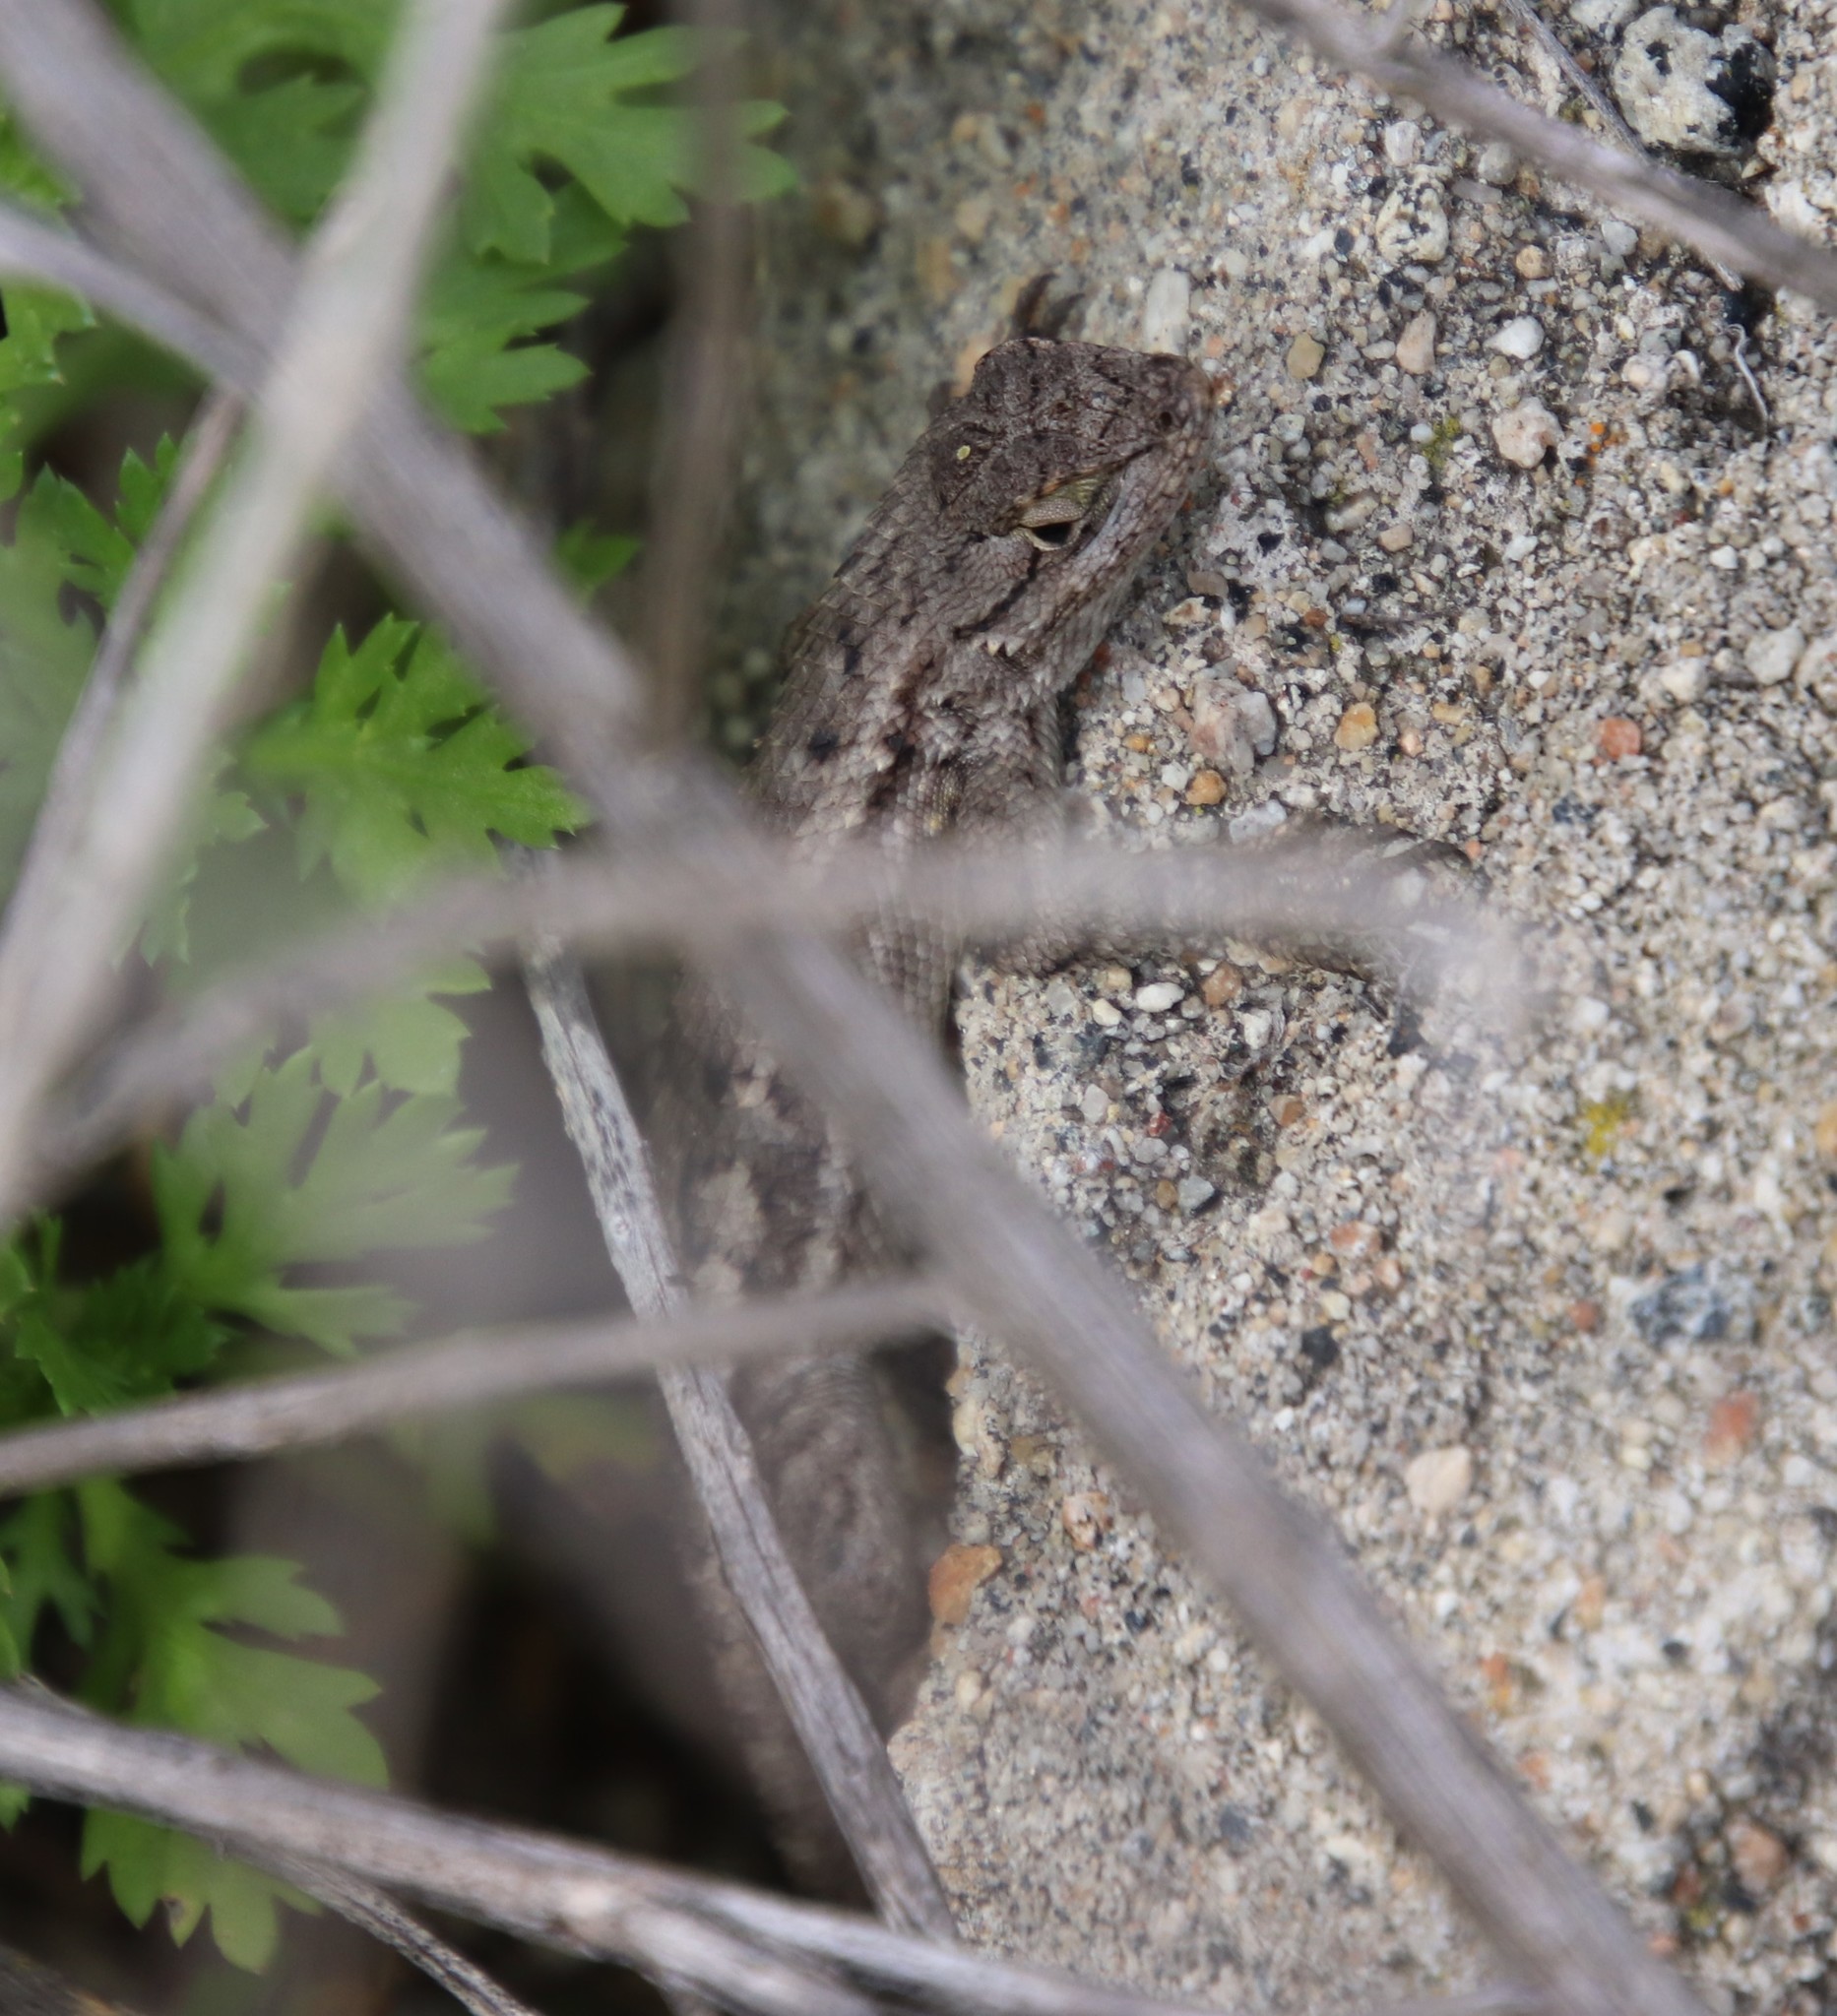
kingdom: Animalia
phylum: Chordata
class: Squamata
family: Phrynosomatidae
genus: Sceloporus
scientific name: Sceloporus occidentalis
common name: Western fence lizard
